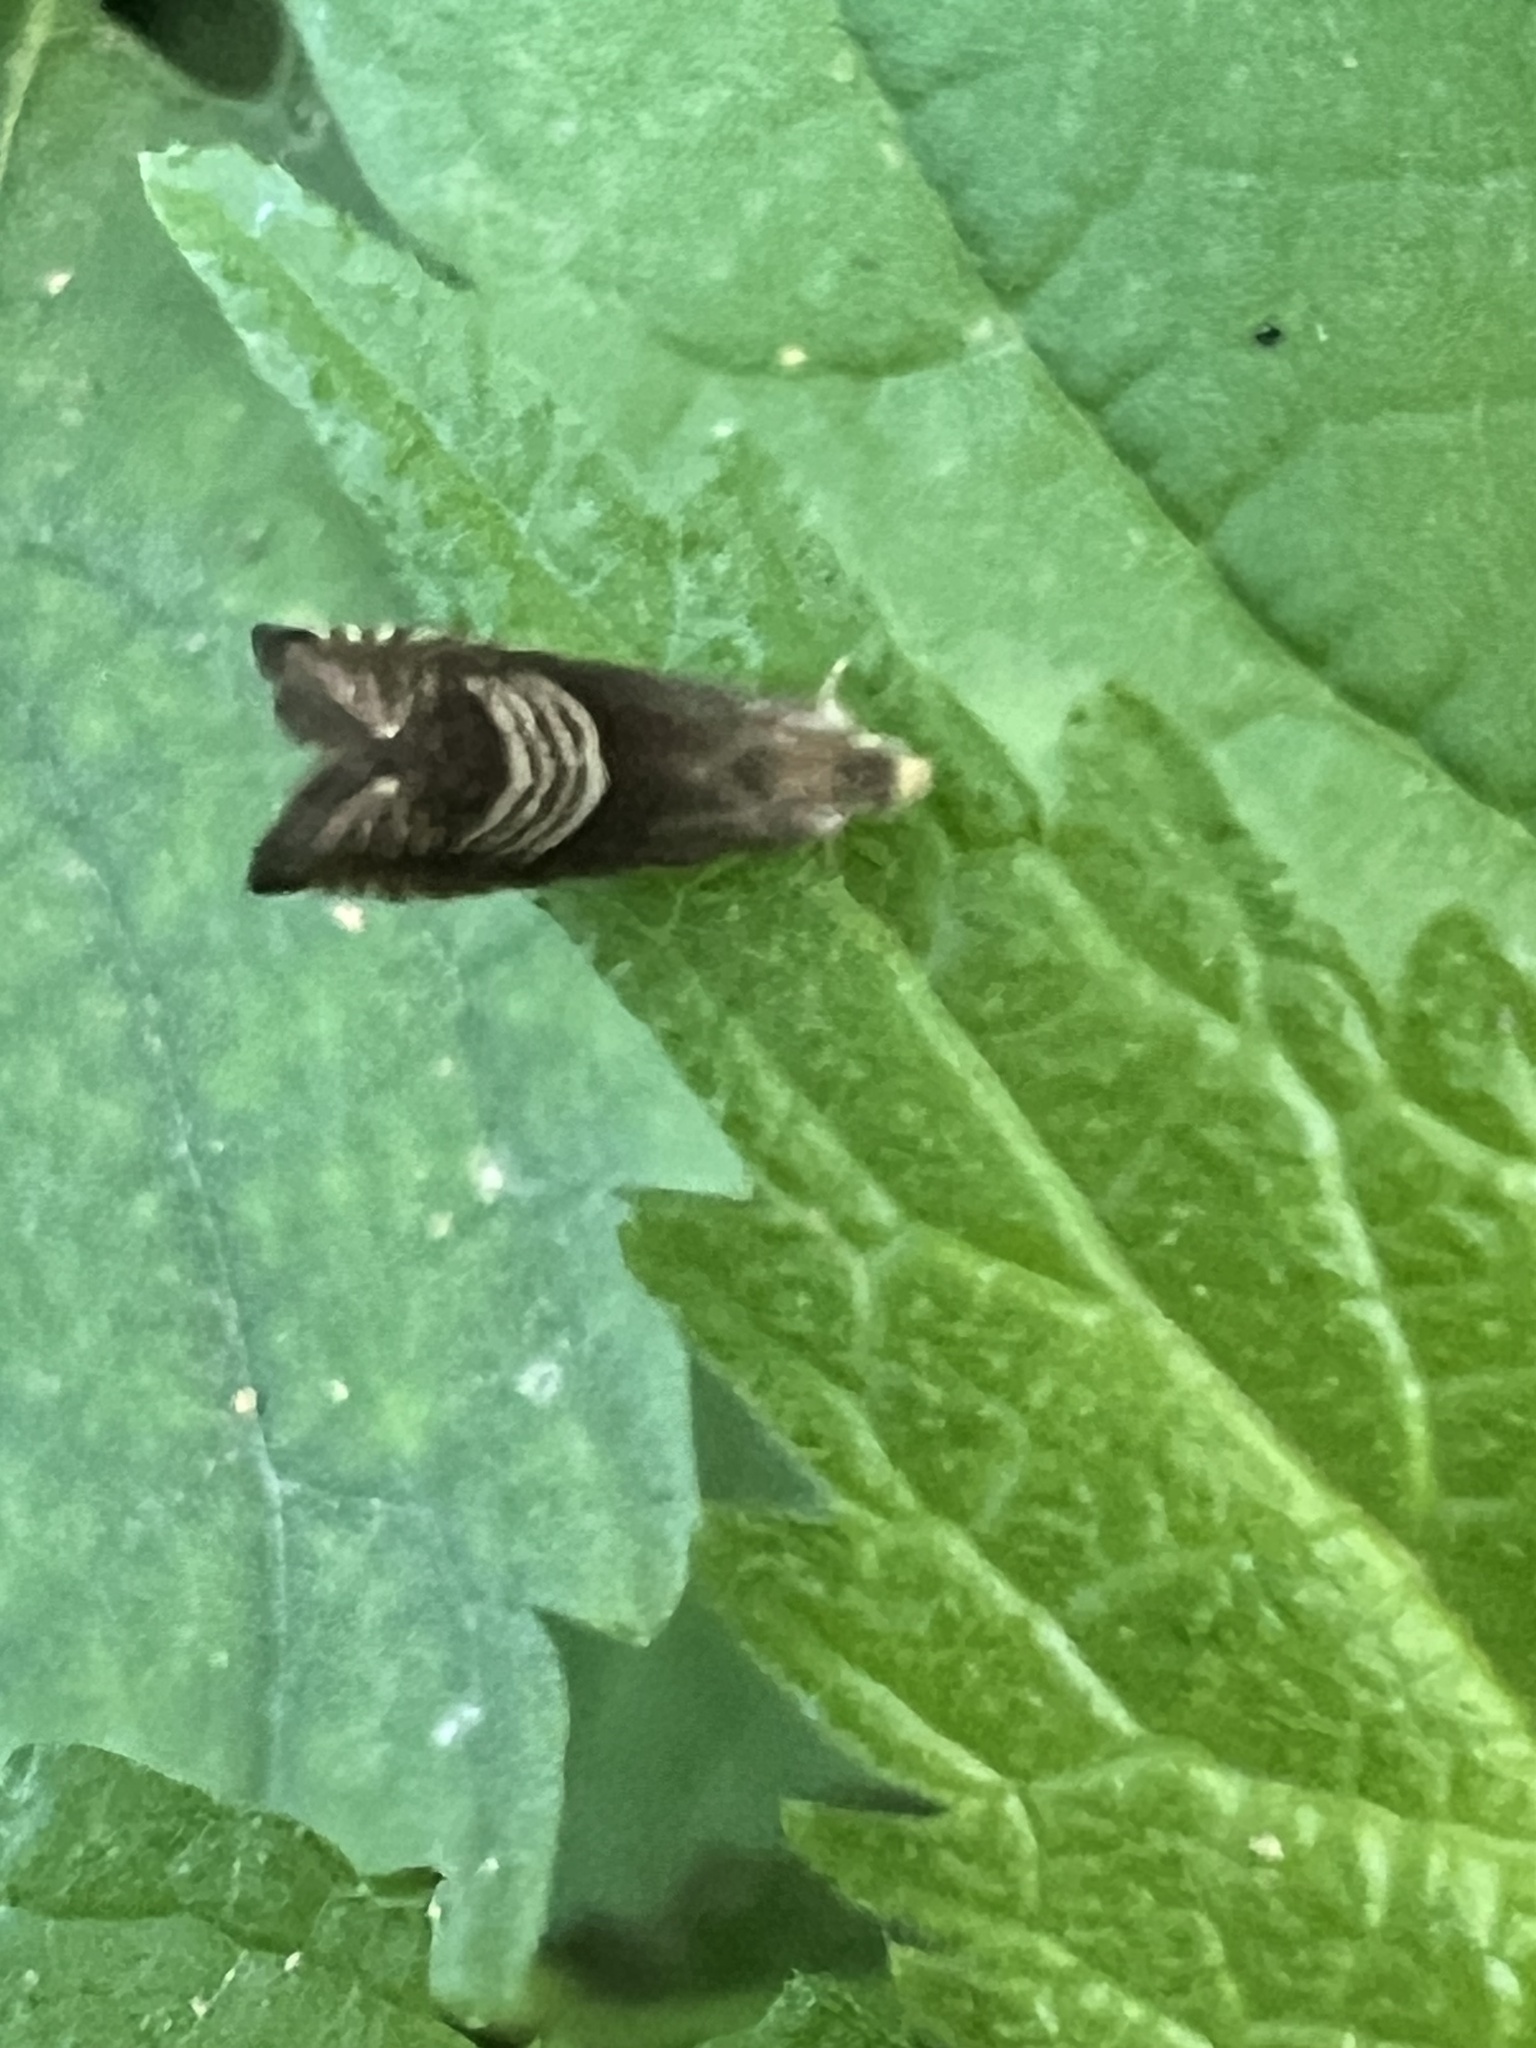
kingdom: Animalia
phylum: Arthropoda
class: Insecta
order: Lepidoptera
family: Tortricidae
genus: Grapholita
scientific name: Grapholita tristrigana
